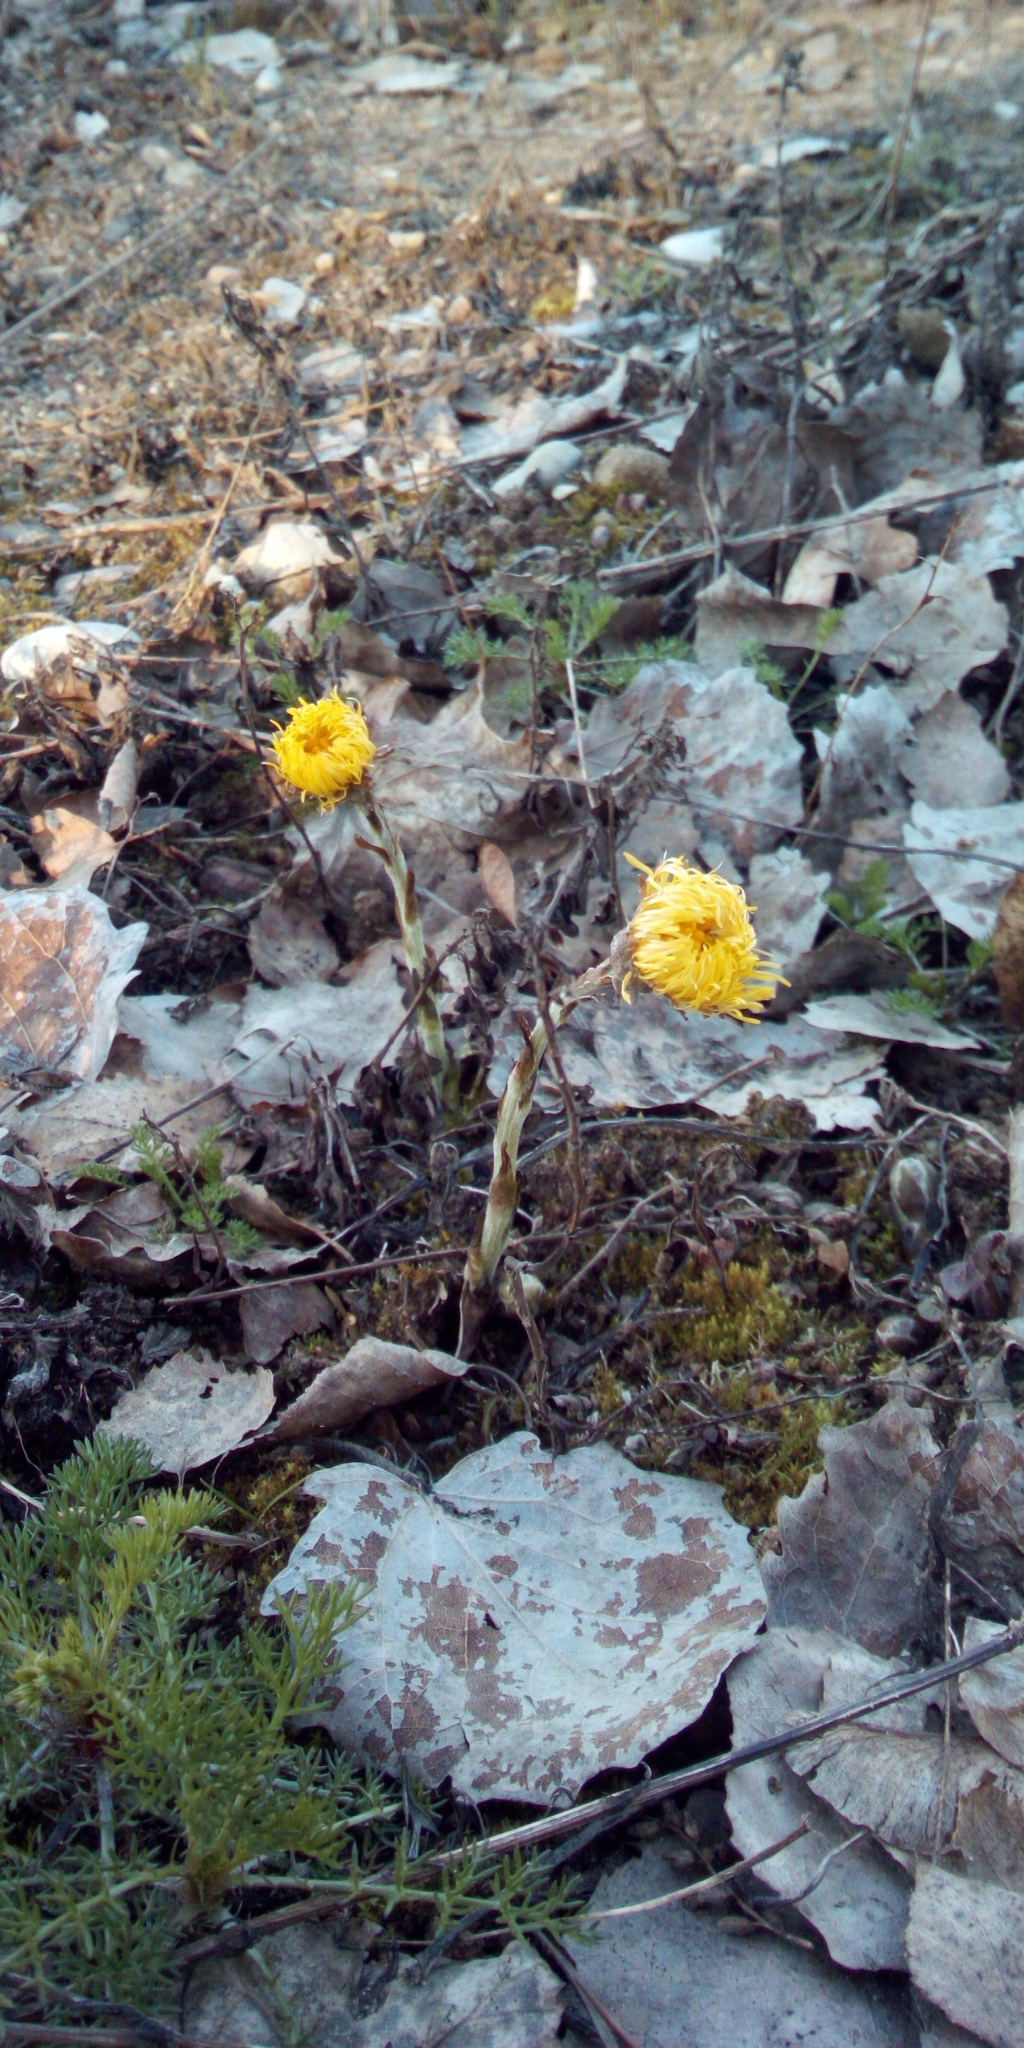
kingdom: Plantae
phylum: Tracheophyta
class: Magnoliopsida
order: Asterales
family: Asteraceae
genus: Tussilago
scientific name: Tussilago farfara
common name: Coltsfoot
